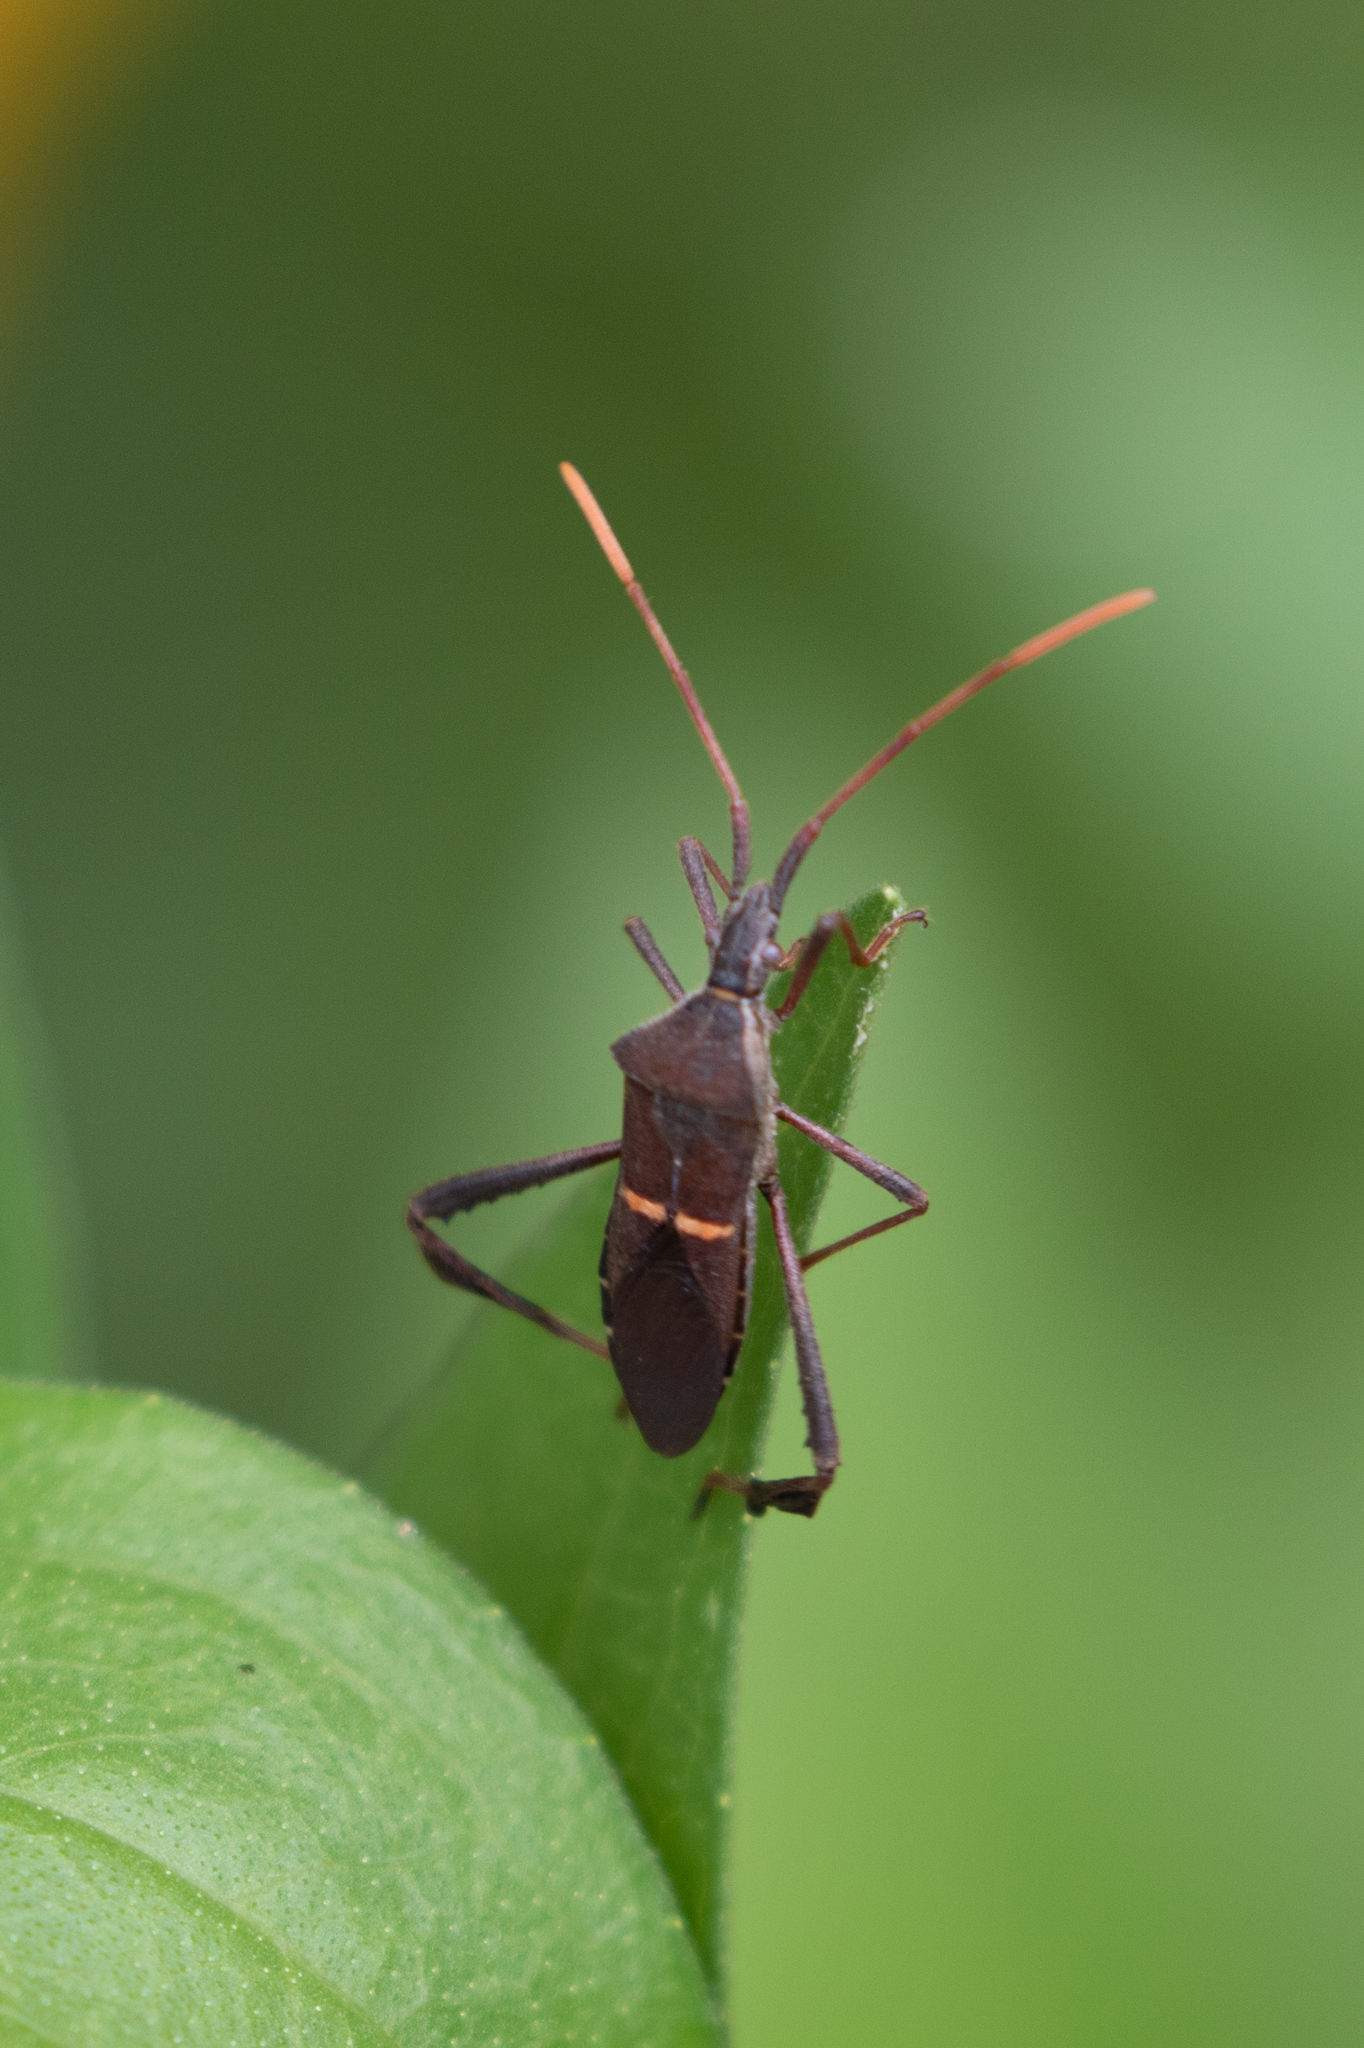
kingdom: Animalia
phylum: Arthropoda
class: Insecta
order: Hemiptera
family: Coreidae
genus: Leptoglossus
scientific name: Leptoglossus phyllopus
